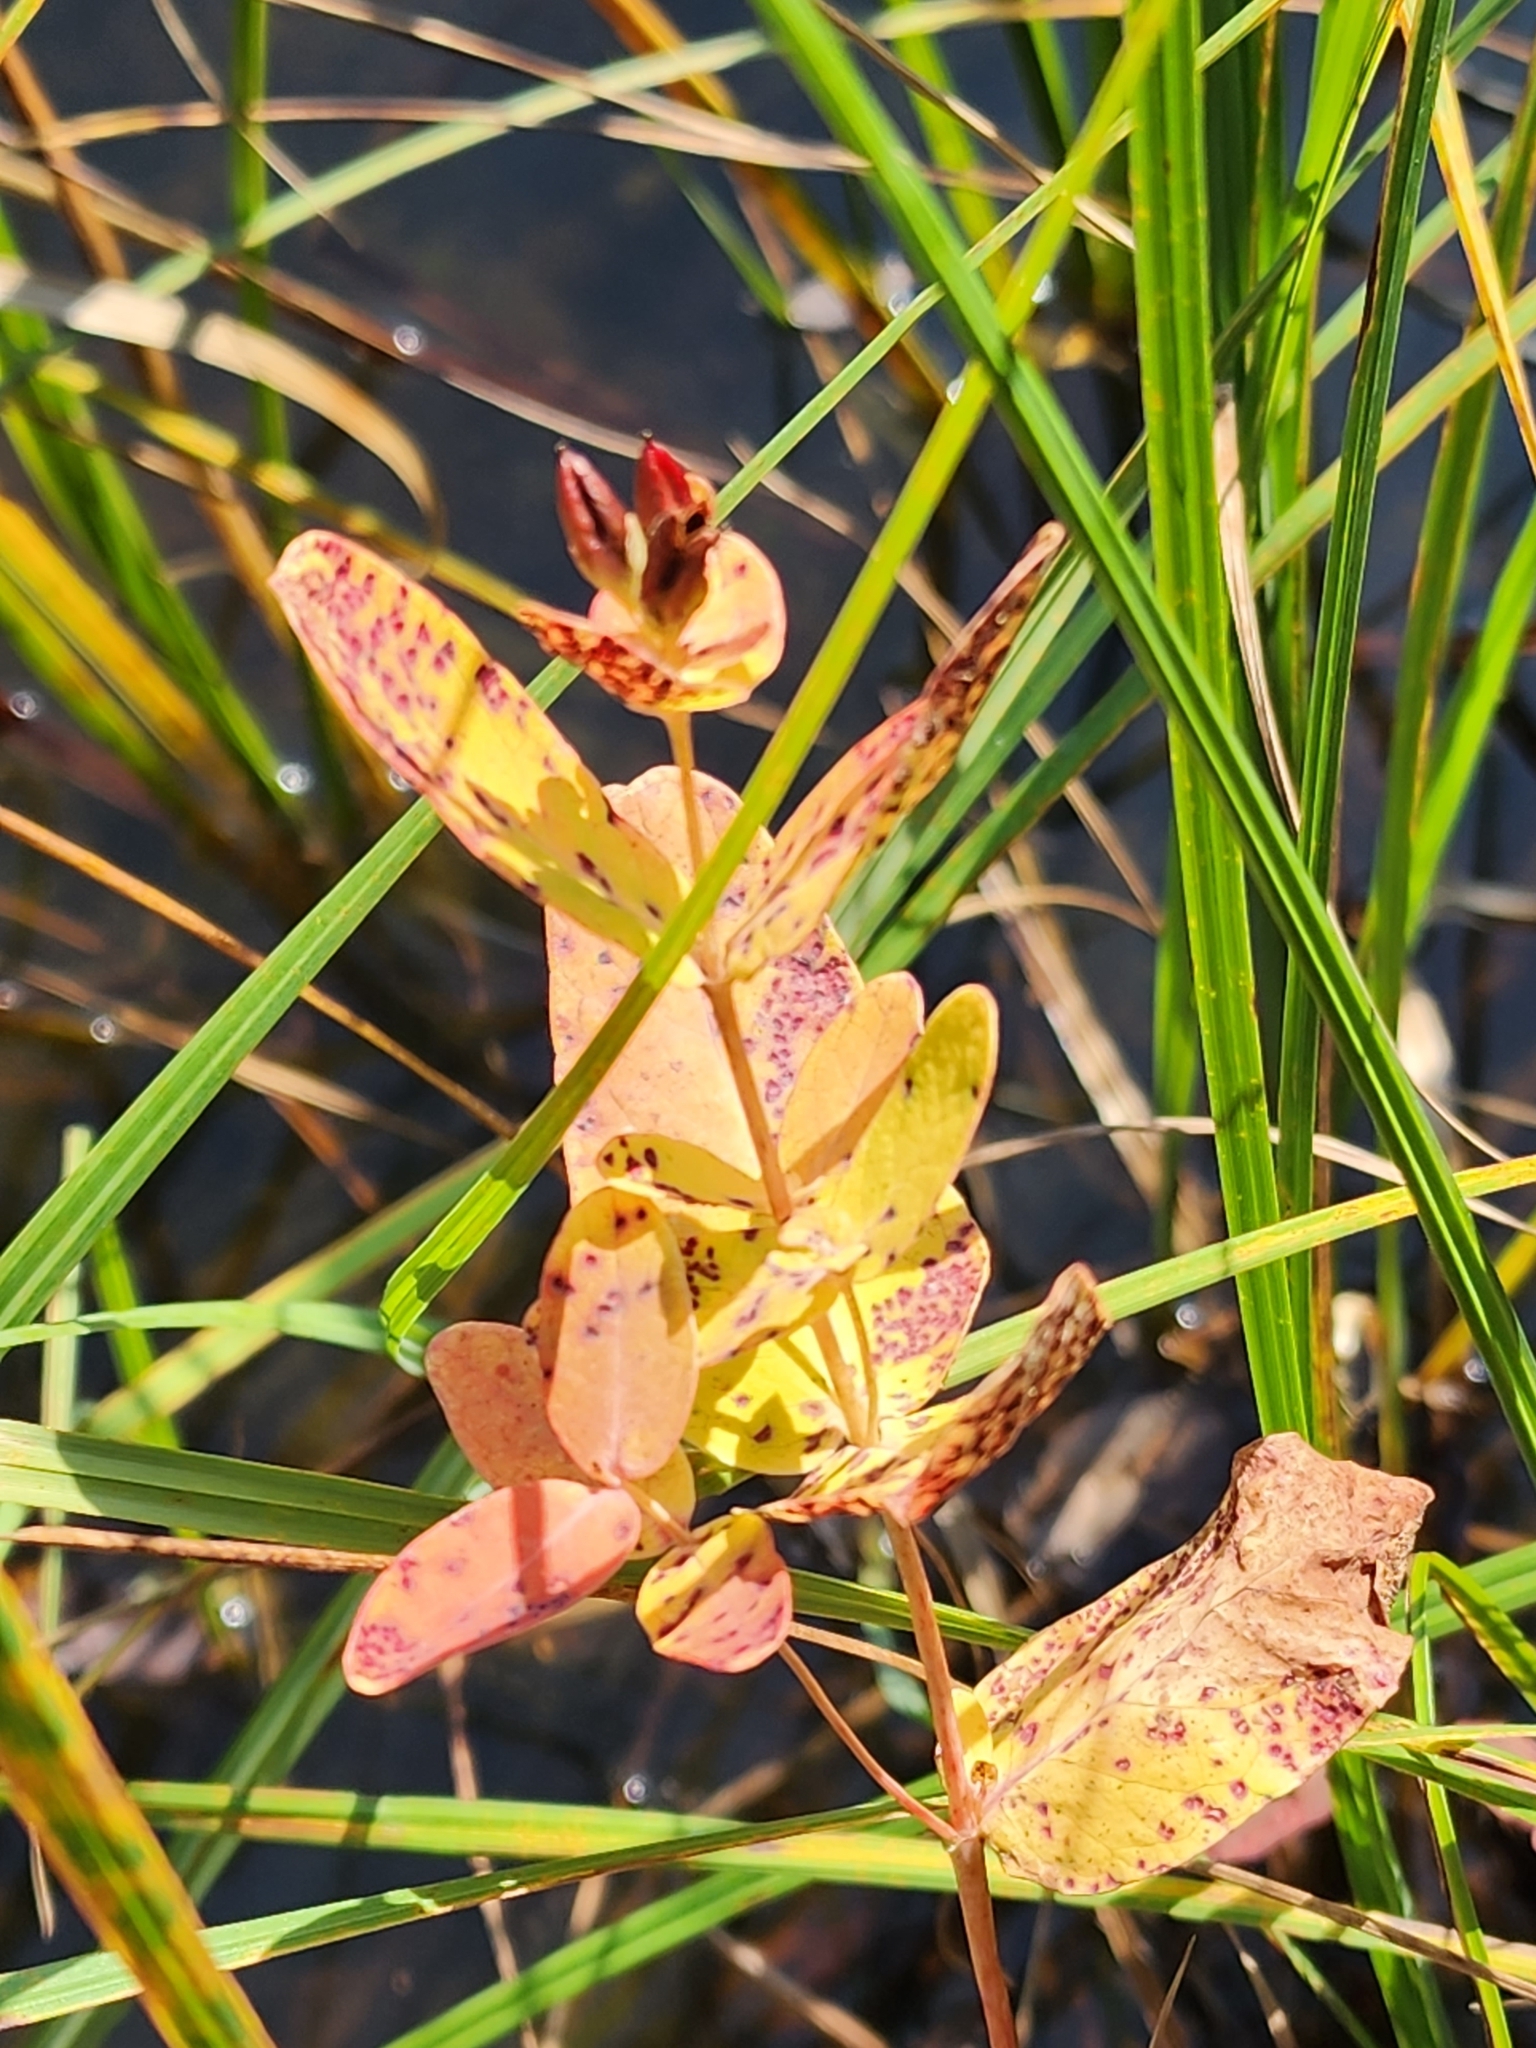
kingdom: Plantae
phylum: Tracheophyta
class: Magnoliopsida
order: Malpighiales
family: Hypericaceae
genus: Triadenum
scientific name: Triadenum fraseri
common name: Fraser's marsh st. johnswort
